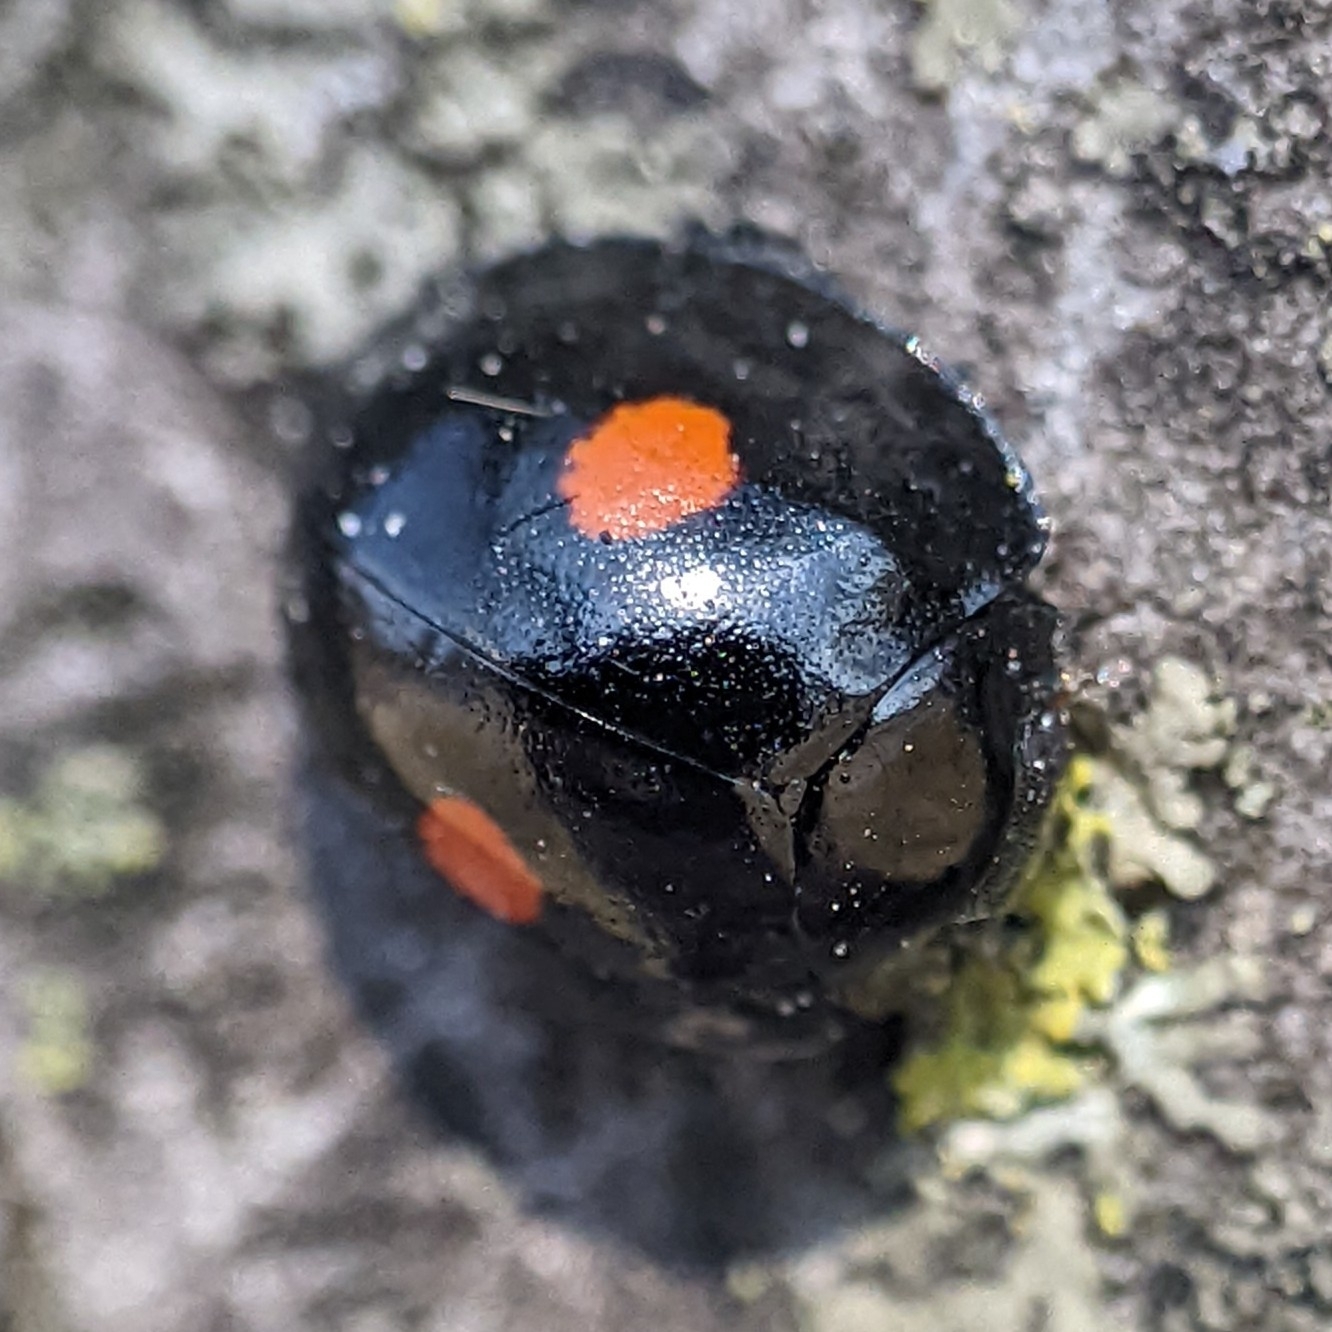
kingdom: Animalia
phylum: Arthropoda
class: Insecta
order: Coleoptera
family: Coccinellidae
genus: Chilocorus
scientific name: Chilocorus stigma
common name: Twicestabbed lady beetle
